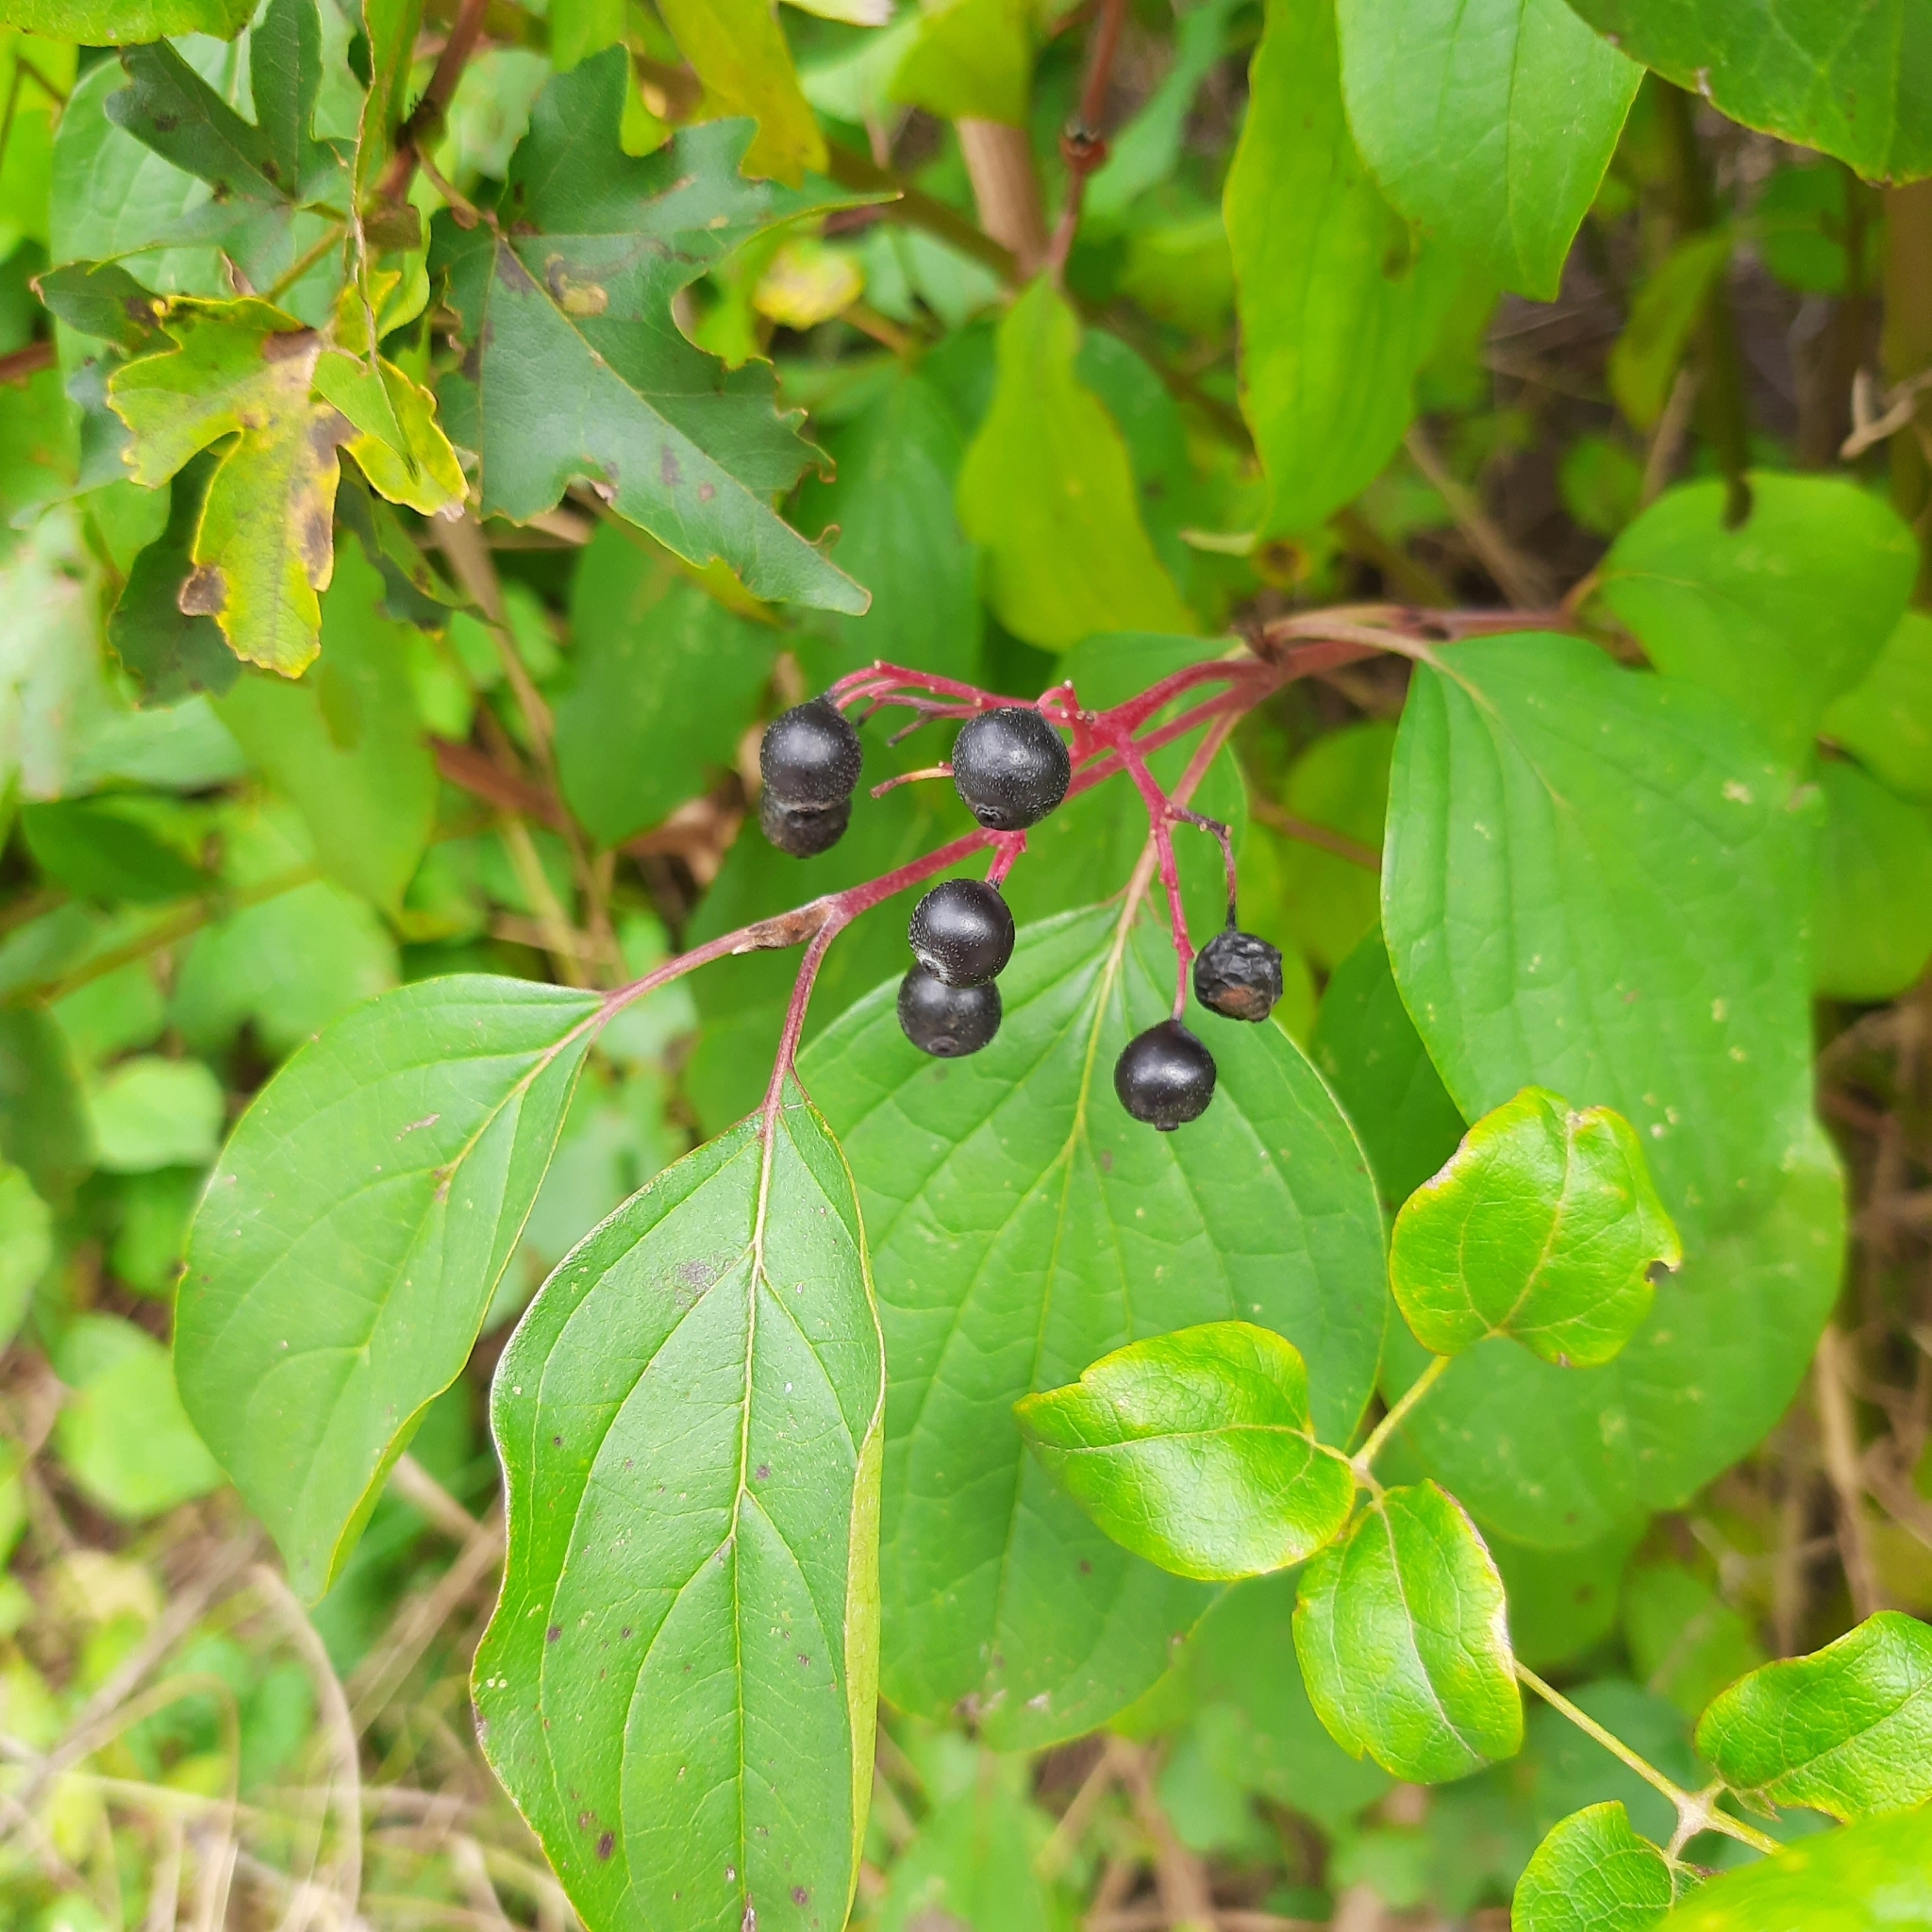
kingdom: Plantae
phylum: Tracheophyta
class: Magnoliopsida
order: Cornales
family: Cornaceae
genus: Cornus
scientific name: Cornus sanguinea
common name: Dogwood
